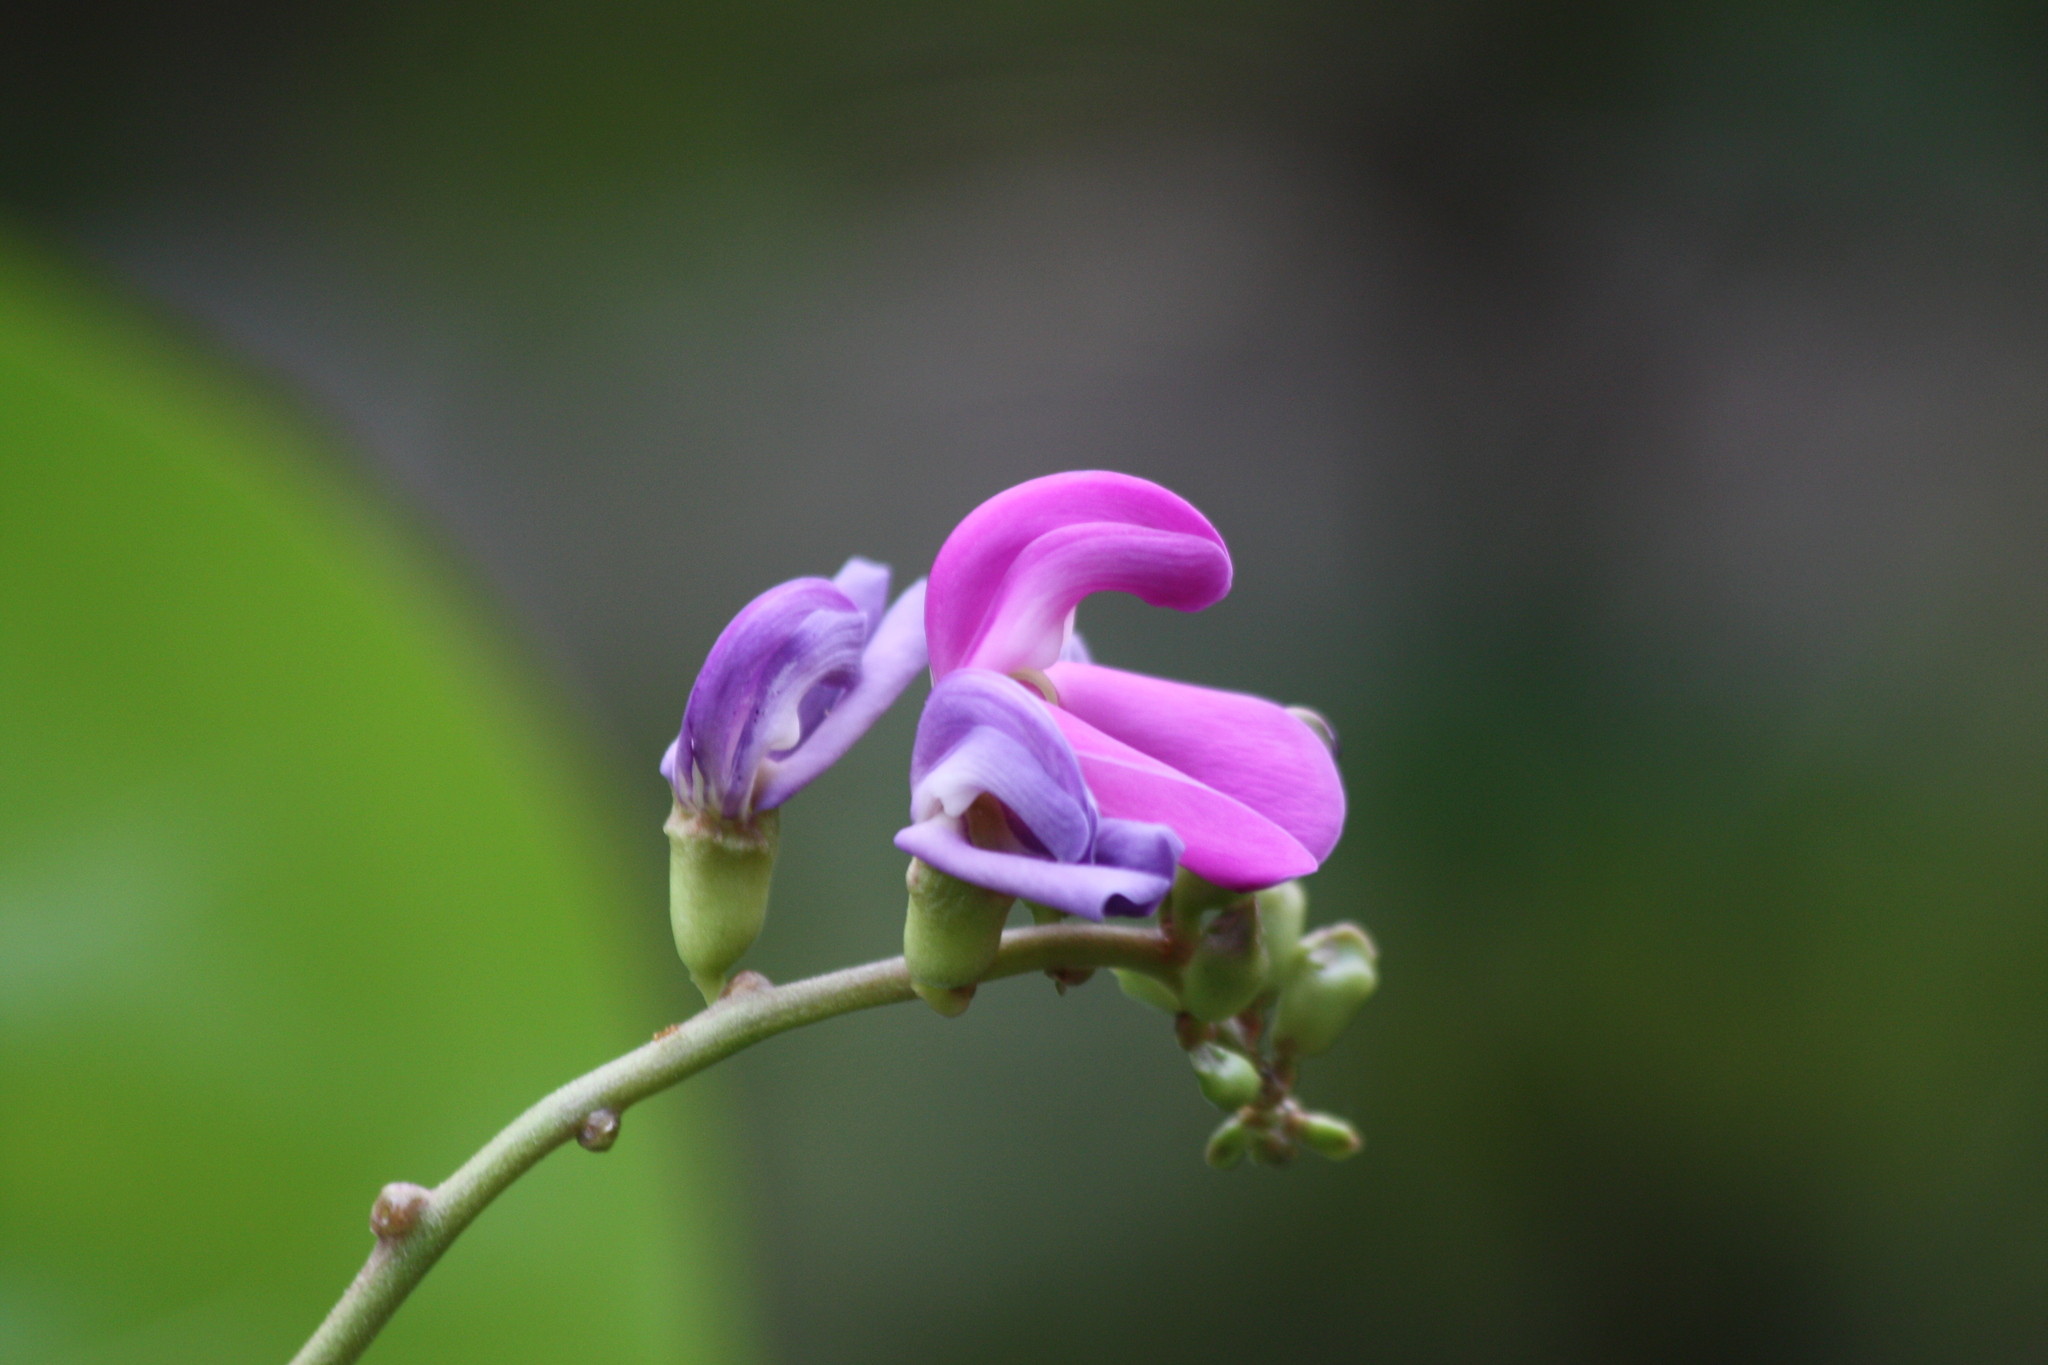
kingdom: Plantae
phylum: Tracheophyta
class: Magnoliopsida
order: Fabales
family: Fabaceae
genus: Canavalia
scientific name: Canavalia rosea
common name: Beach-bean
